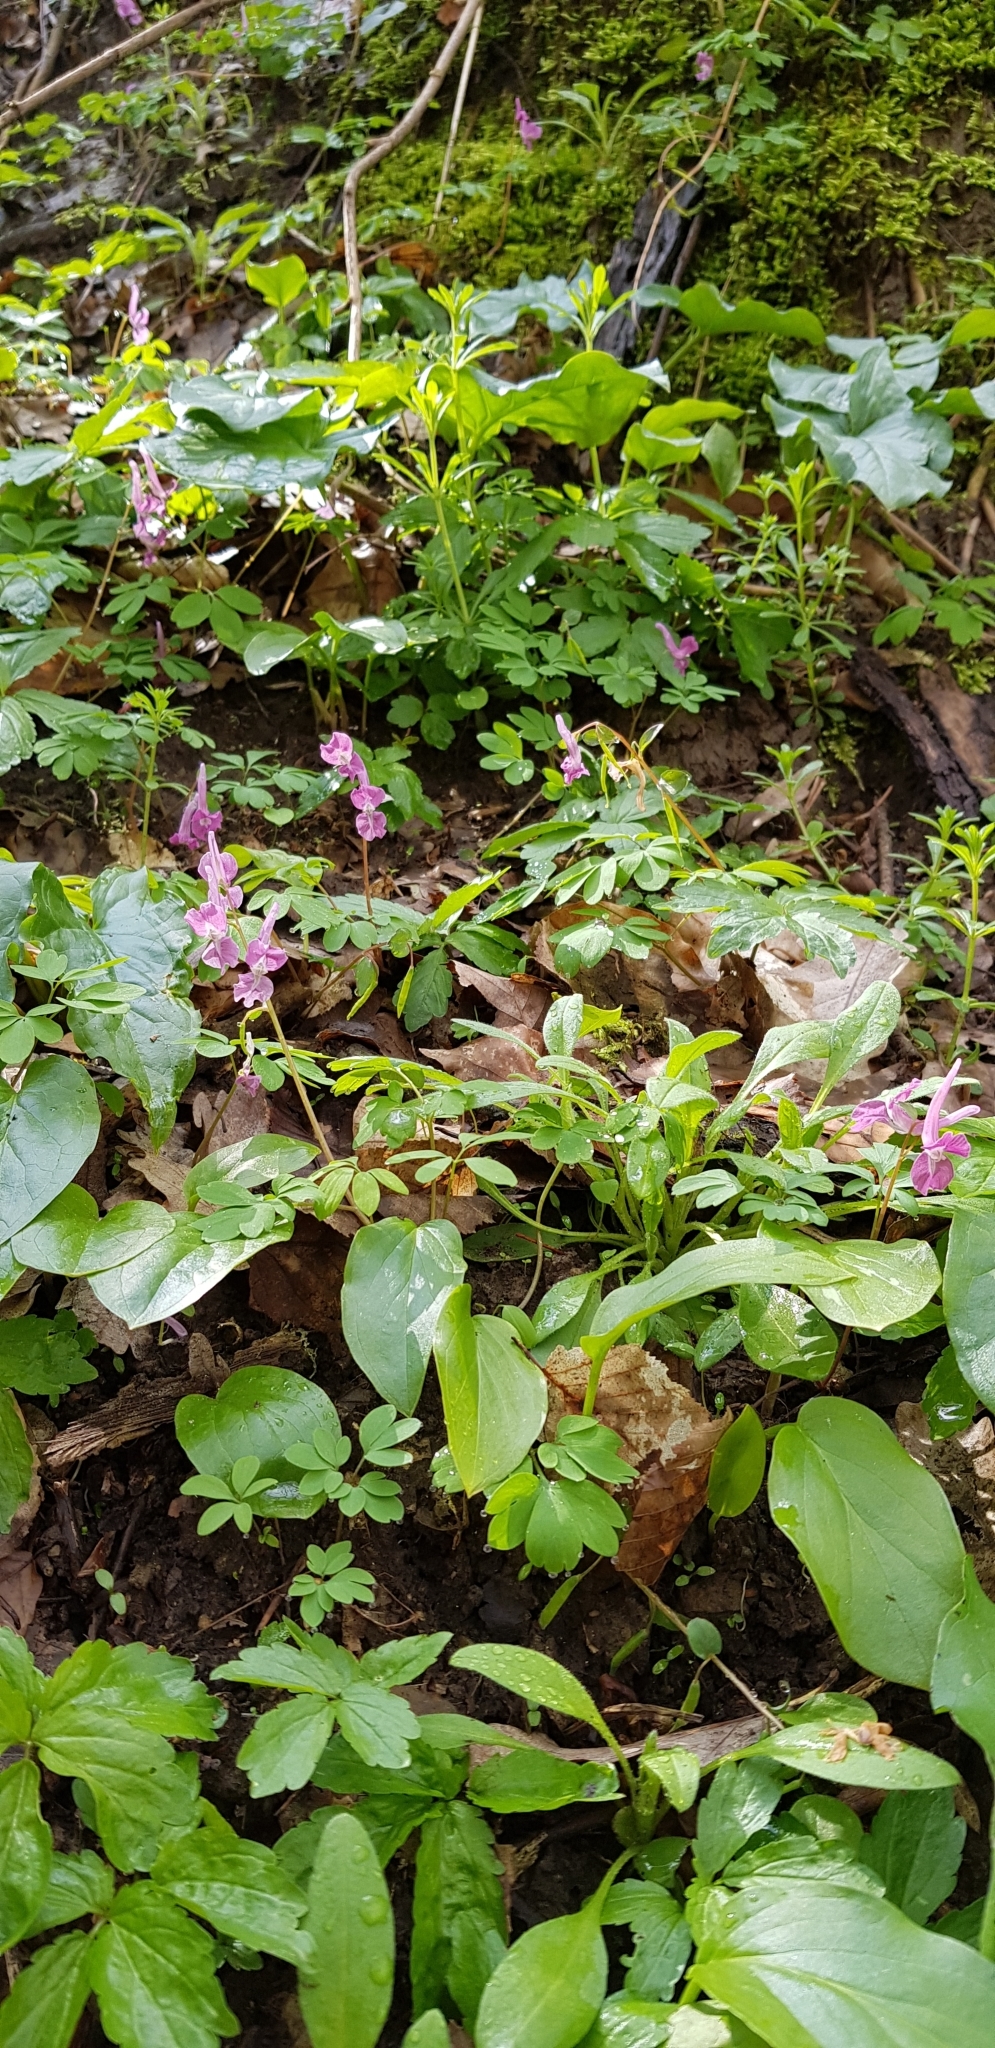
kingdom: Plantae
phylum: Tracheophyta
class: Magnoliopsida
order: Ranunculales
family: Papaveraceae
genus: Corydalis
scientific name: Corydalis caucasica
